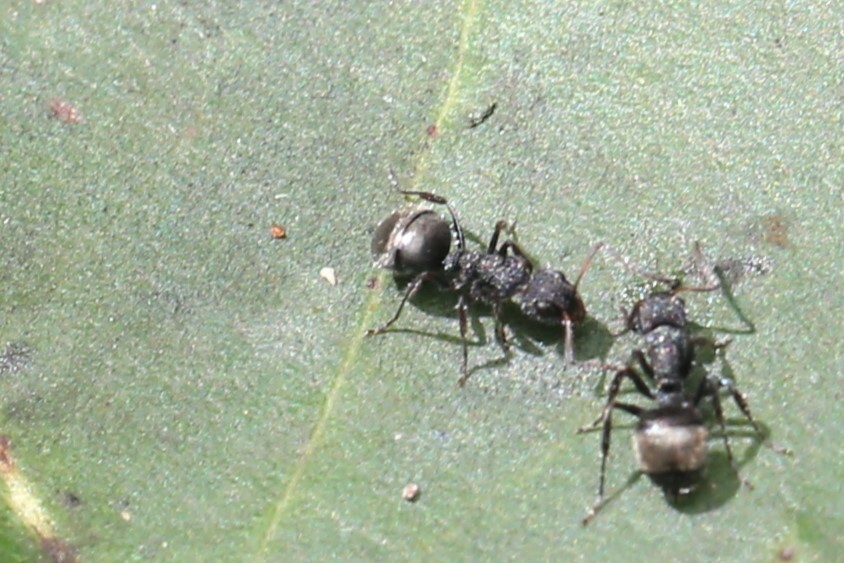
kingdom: Animalia
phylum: Arthropoda
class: Insecta
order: Hymenoptera
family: Formicidae
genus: Dolichoderus
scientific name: Dolichoderus scrobiculatus
